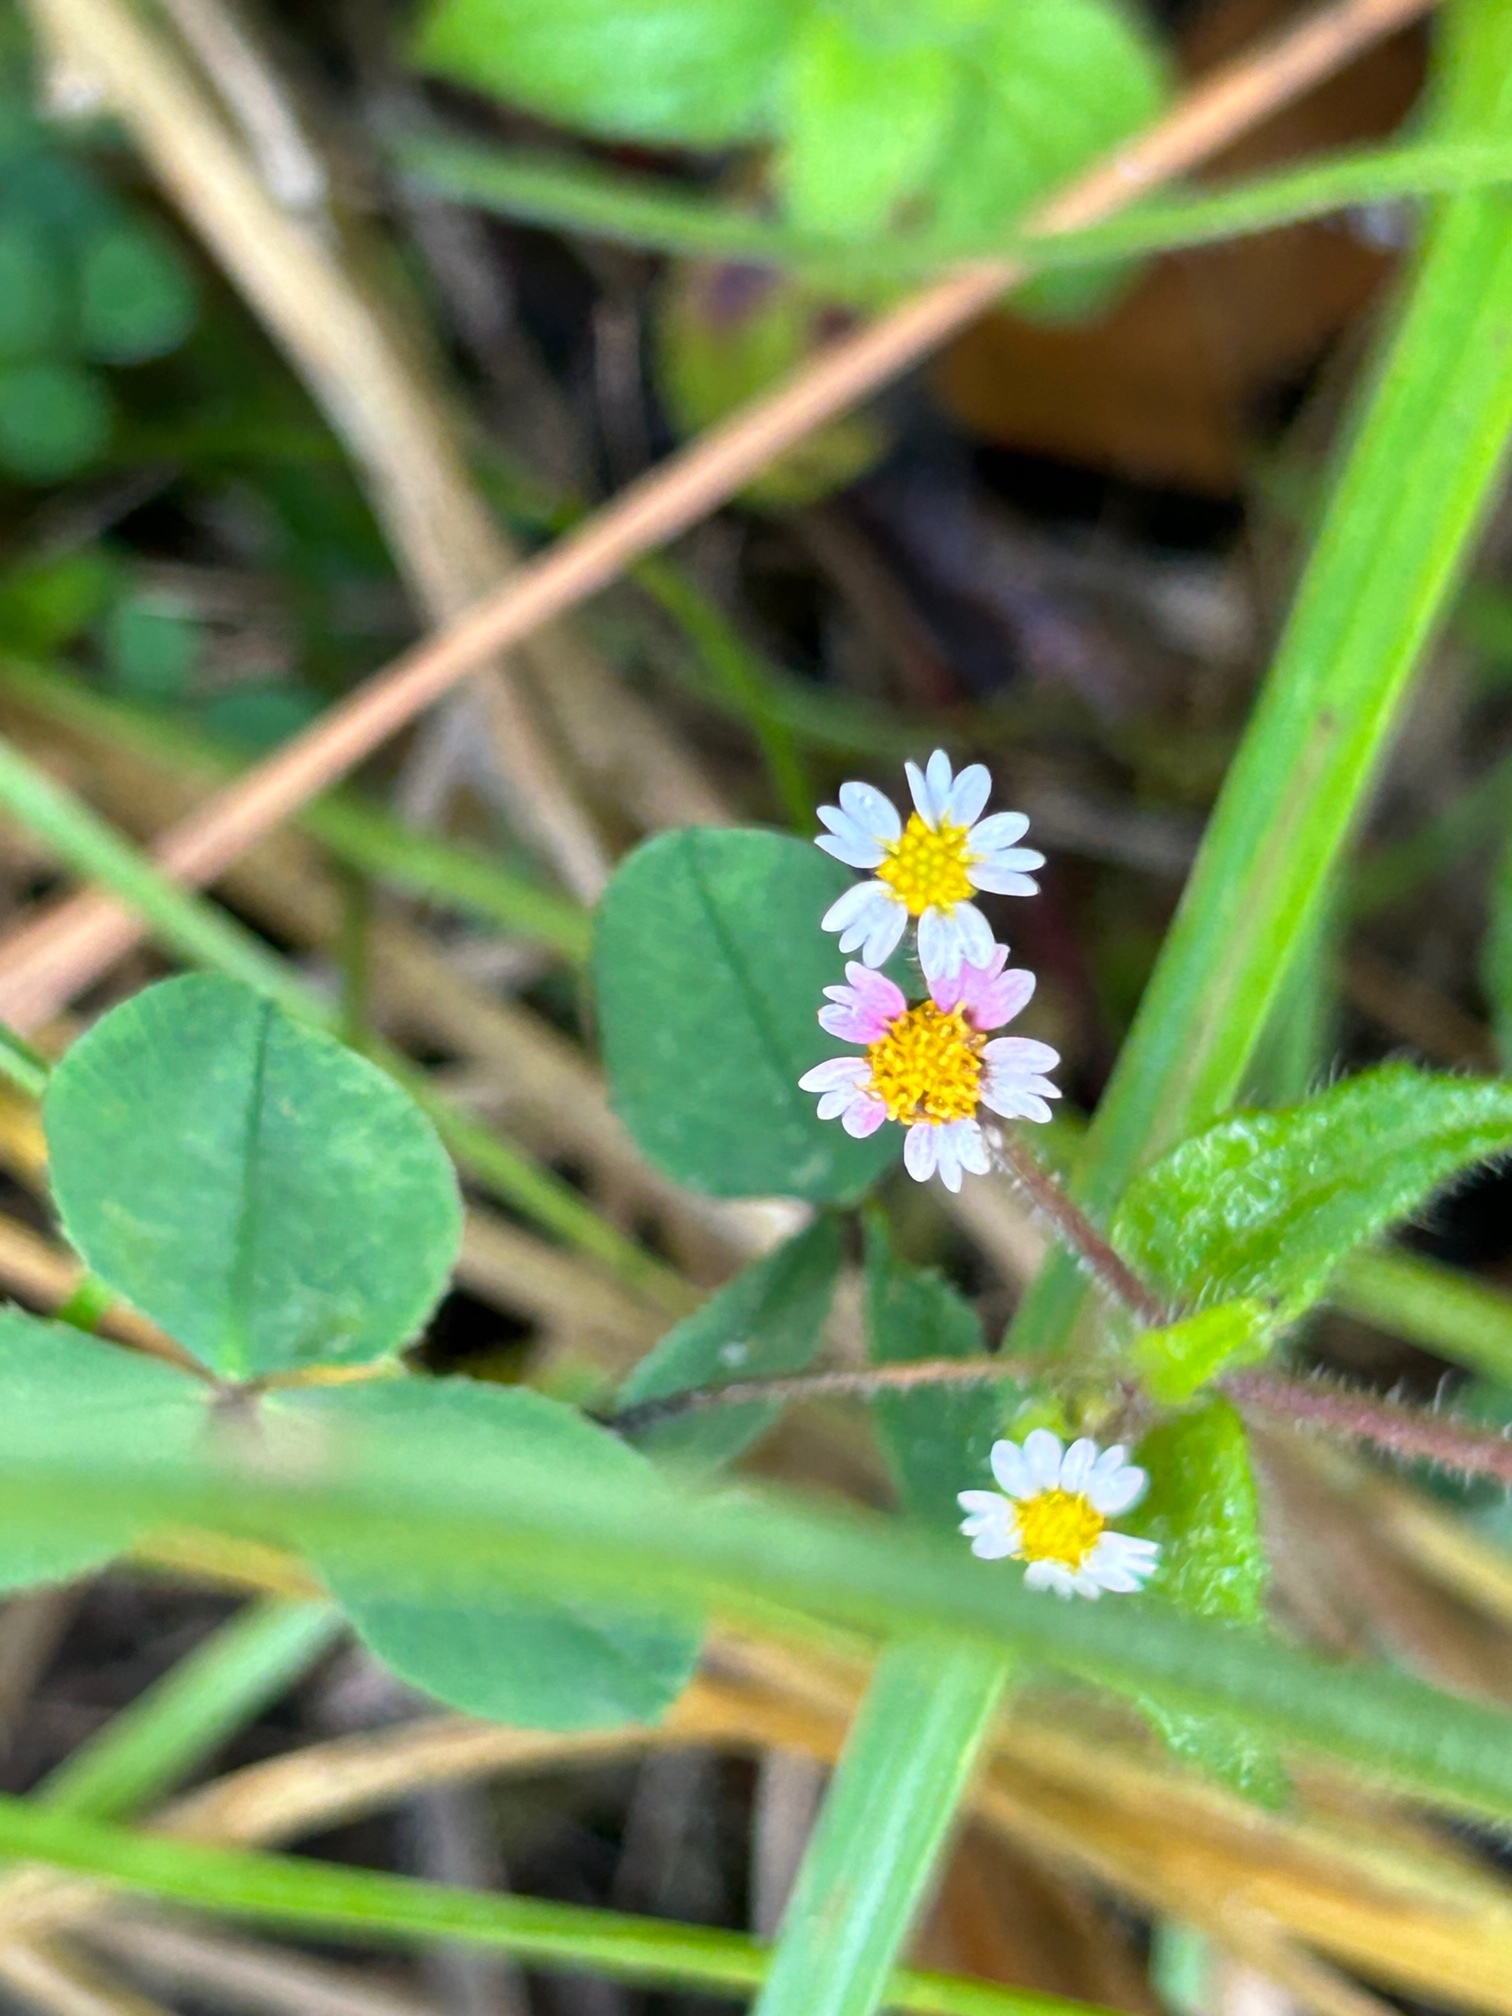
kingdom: Plantae
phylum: Tracheophyta
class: Magnoliopsida
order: Asterales
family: Asteraceae
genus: Galinsoga
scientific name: Galinsoga quadriradiata
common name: Shaggy soldier
